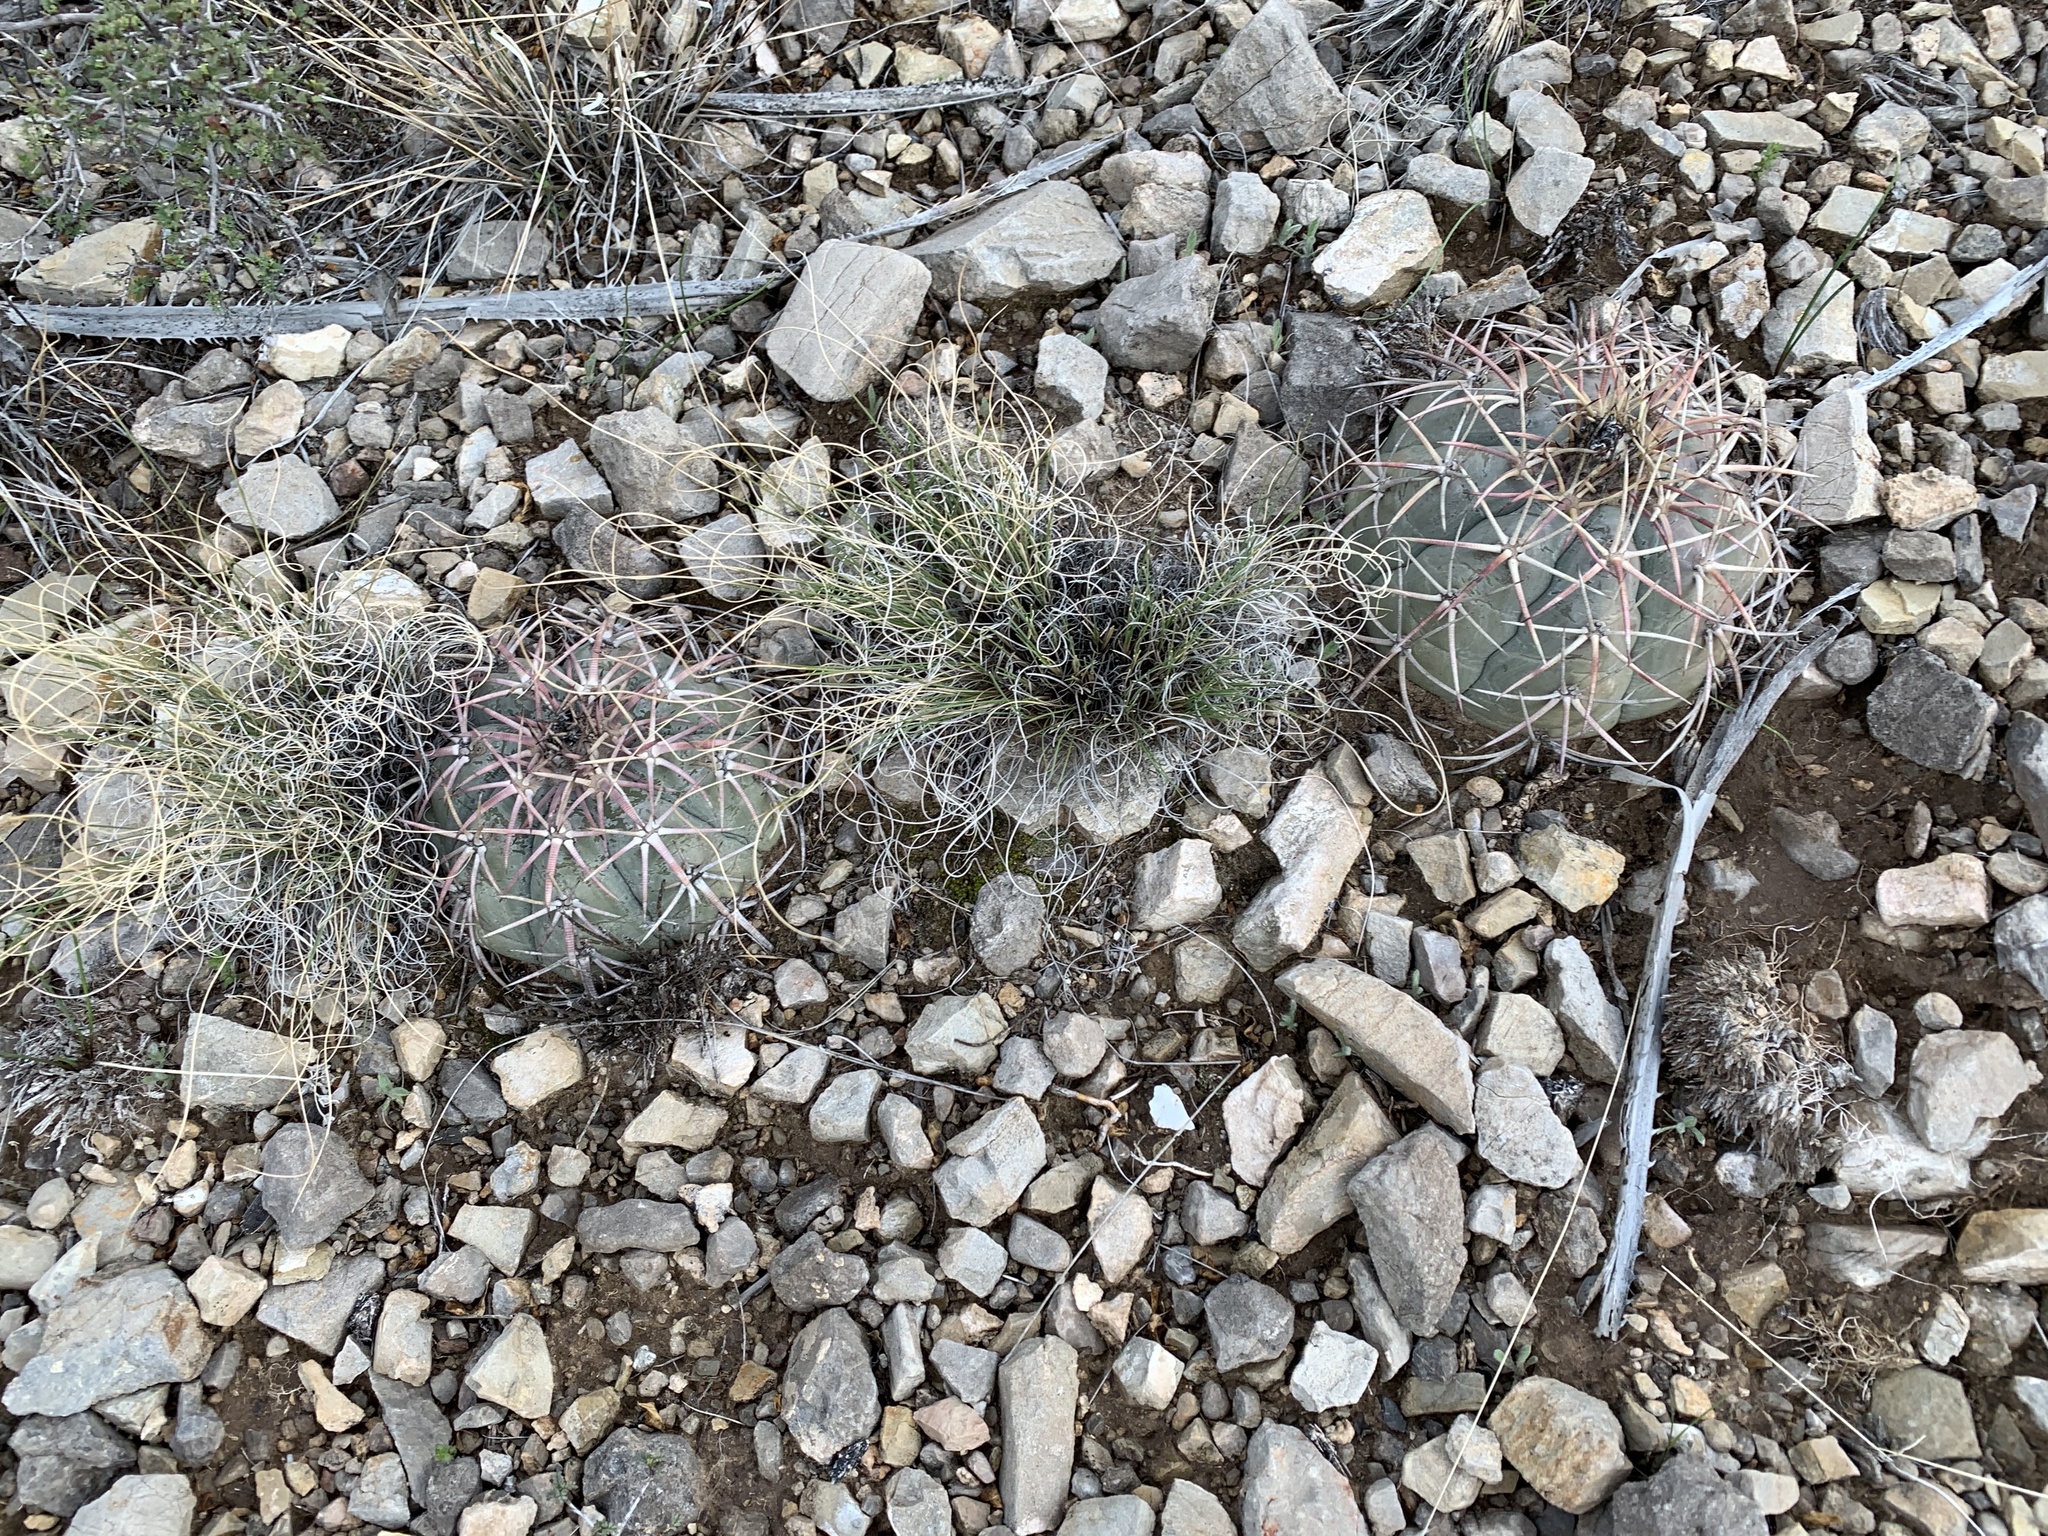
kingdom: Plantae
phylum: Tracheophyta
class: Magnoliopsida
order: Caryophyllales
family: Cactaceae
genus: Echinocactus
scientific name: Echinocactus horizonthalonius
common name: Devilshead
